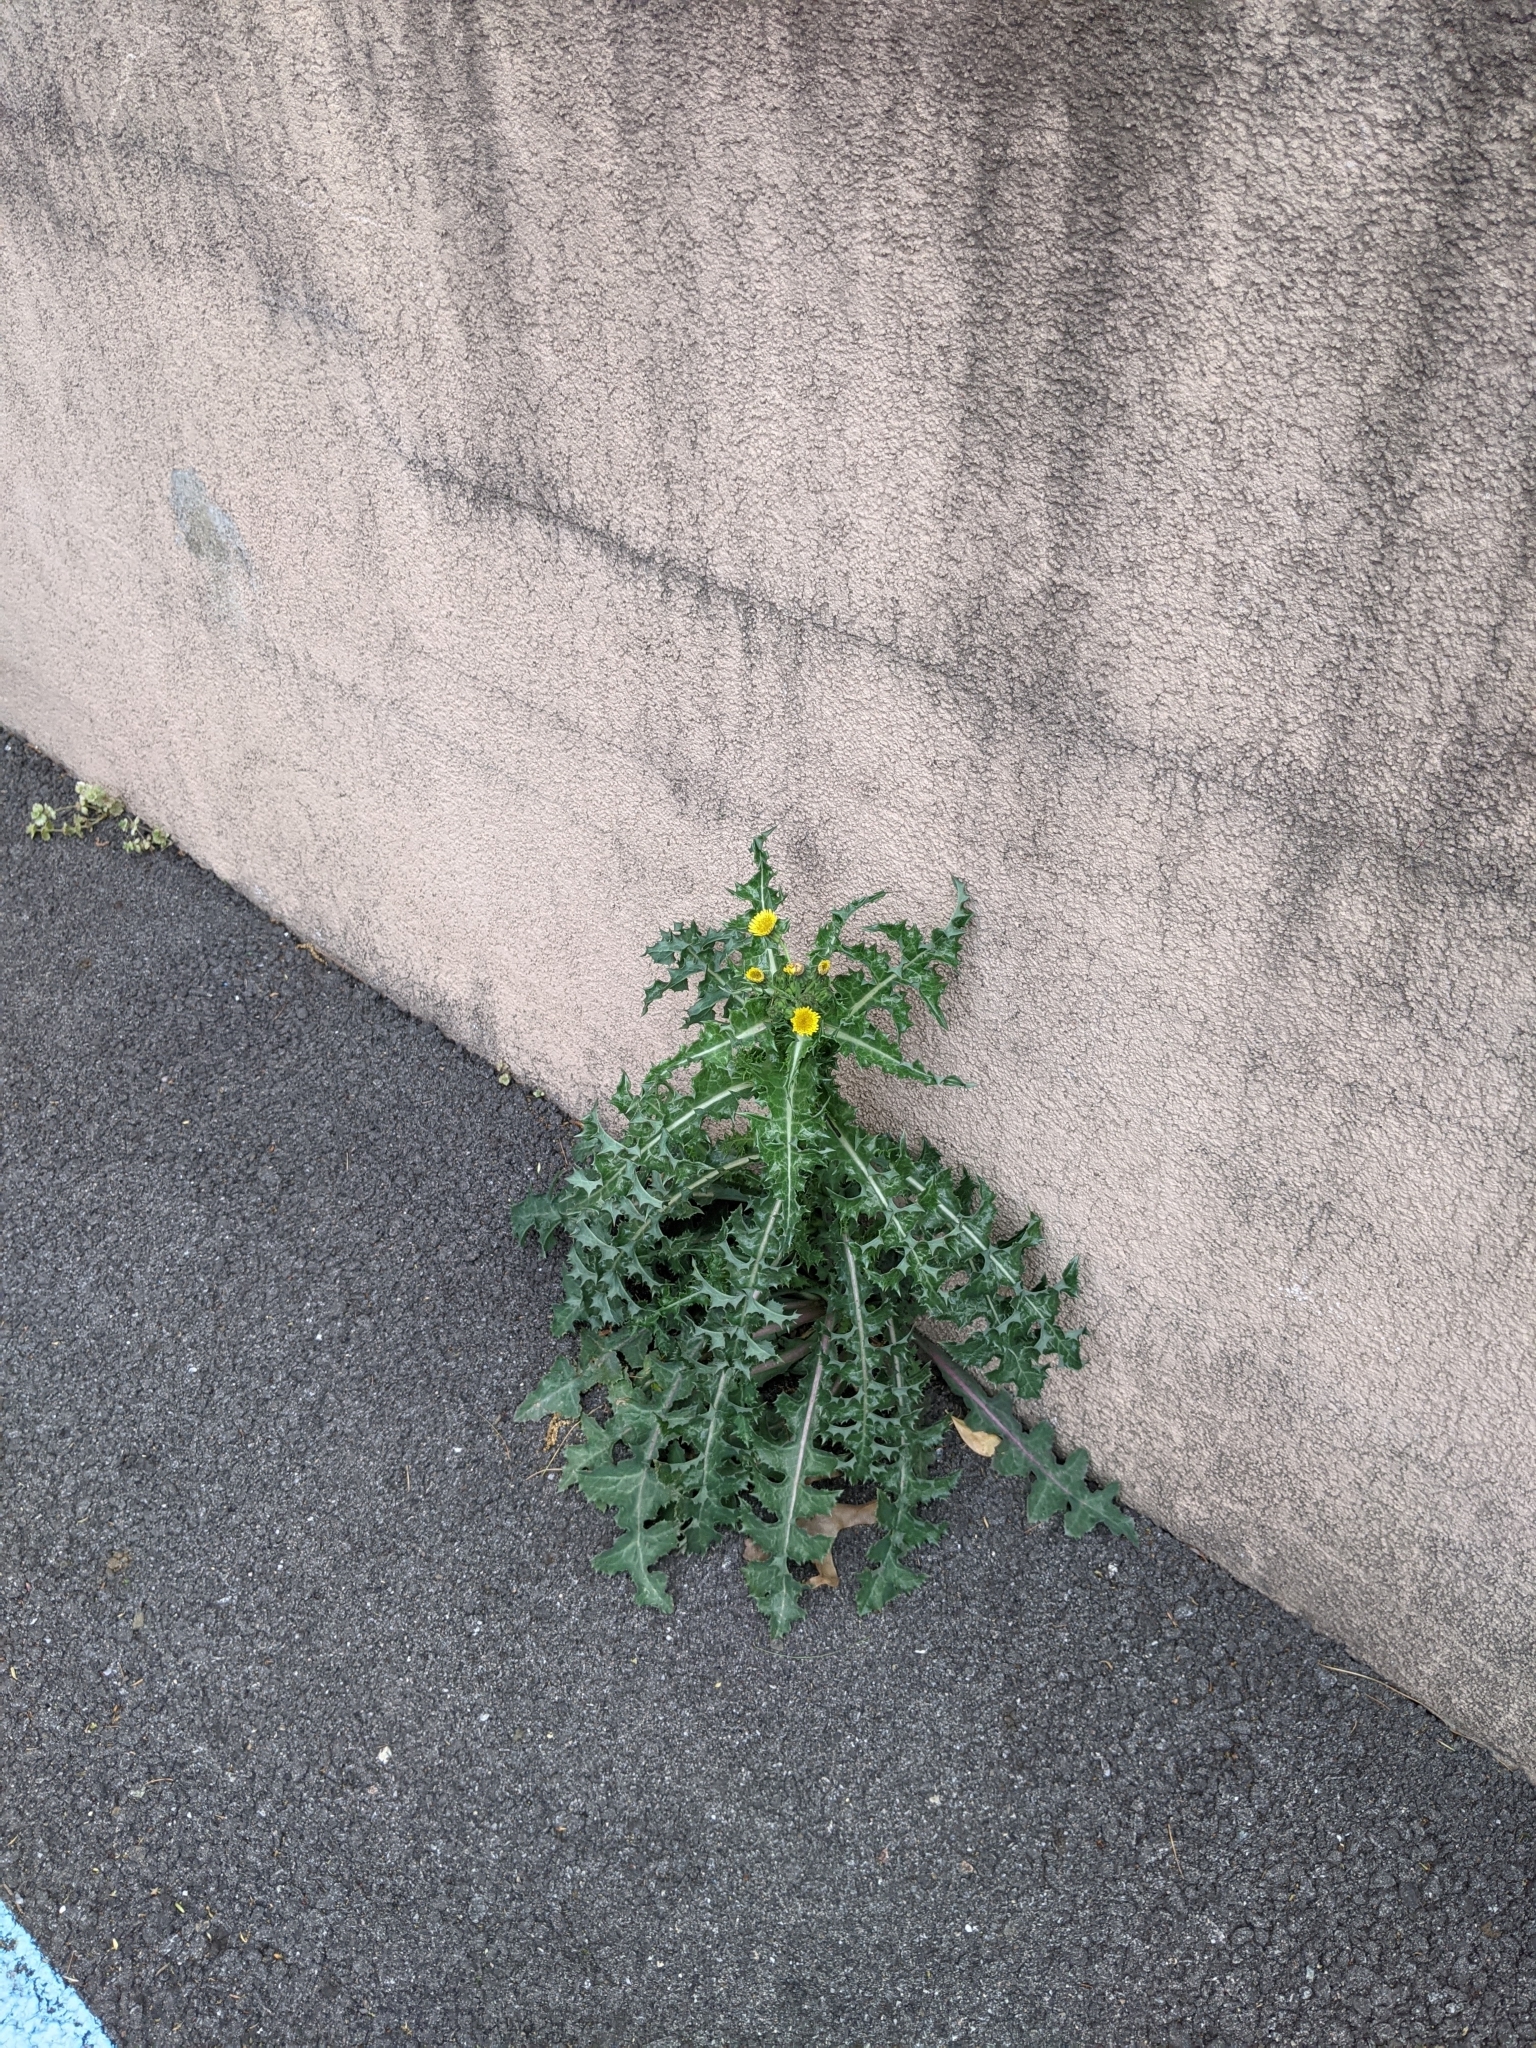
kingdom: Plantae
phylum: Tracheophyta
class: Magnoliopsida
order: Asterales
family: Asteraceae
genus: Sonchus
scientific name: Sonchus asper
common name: Prickly sow-thistle
